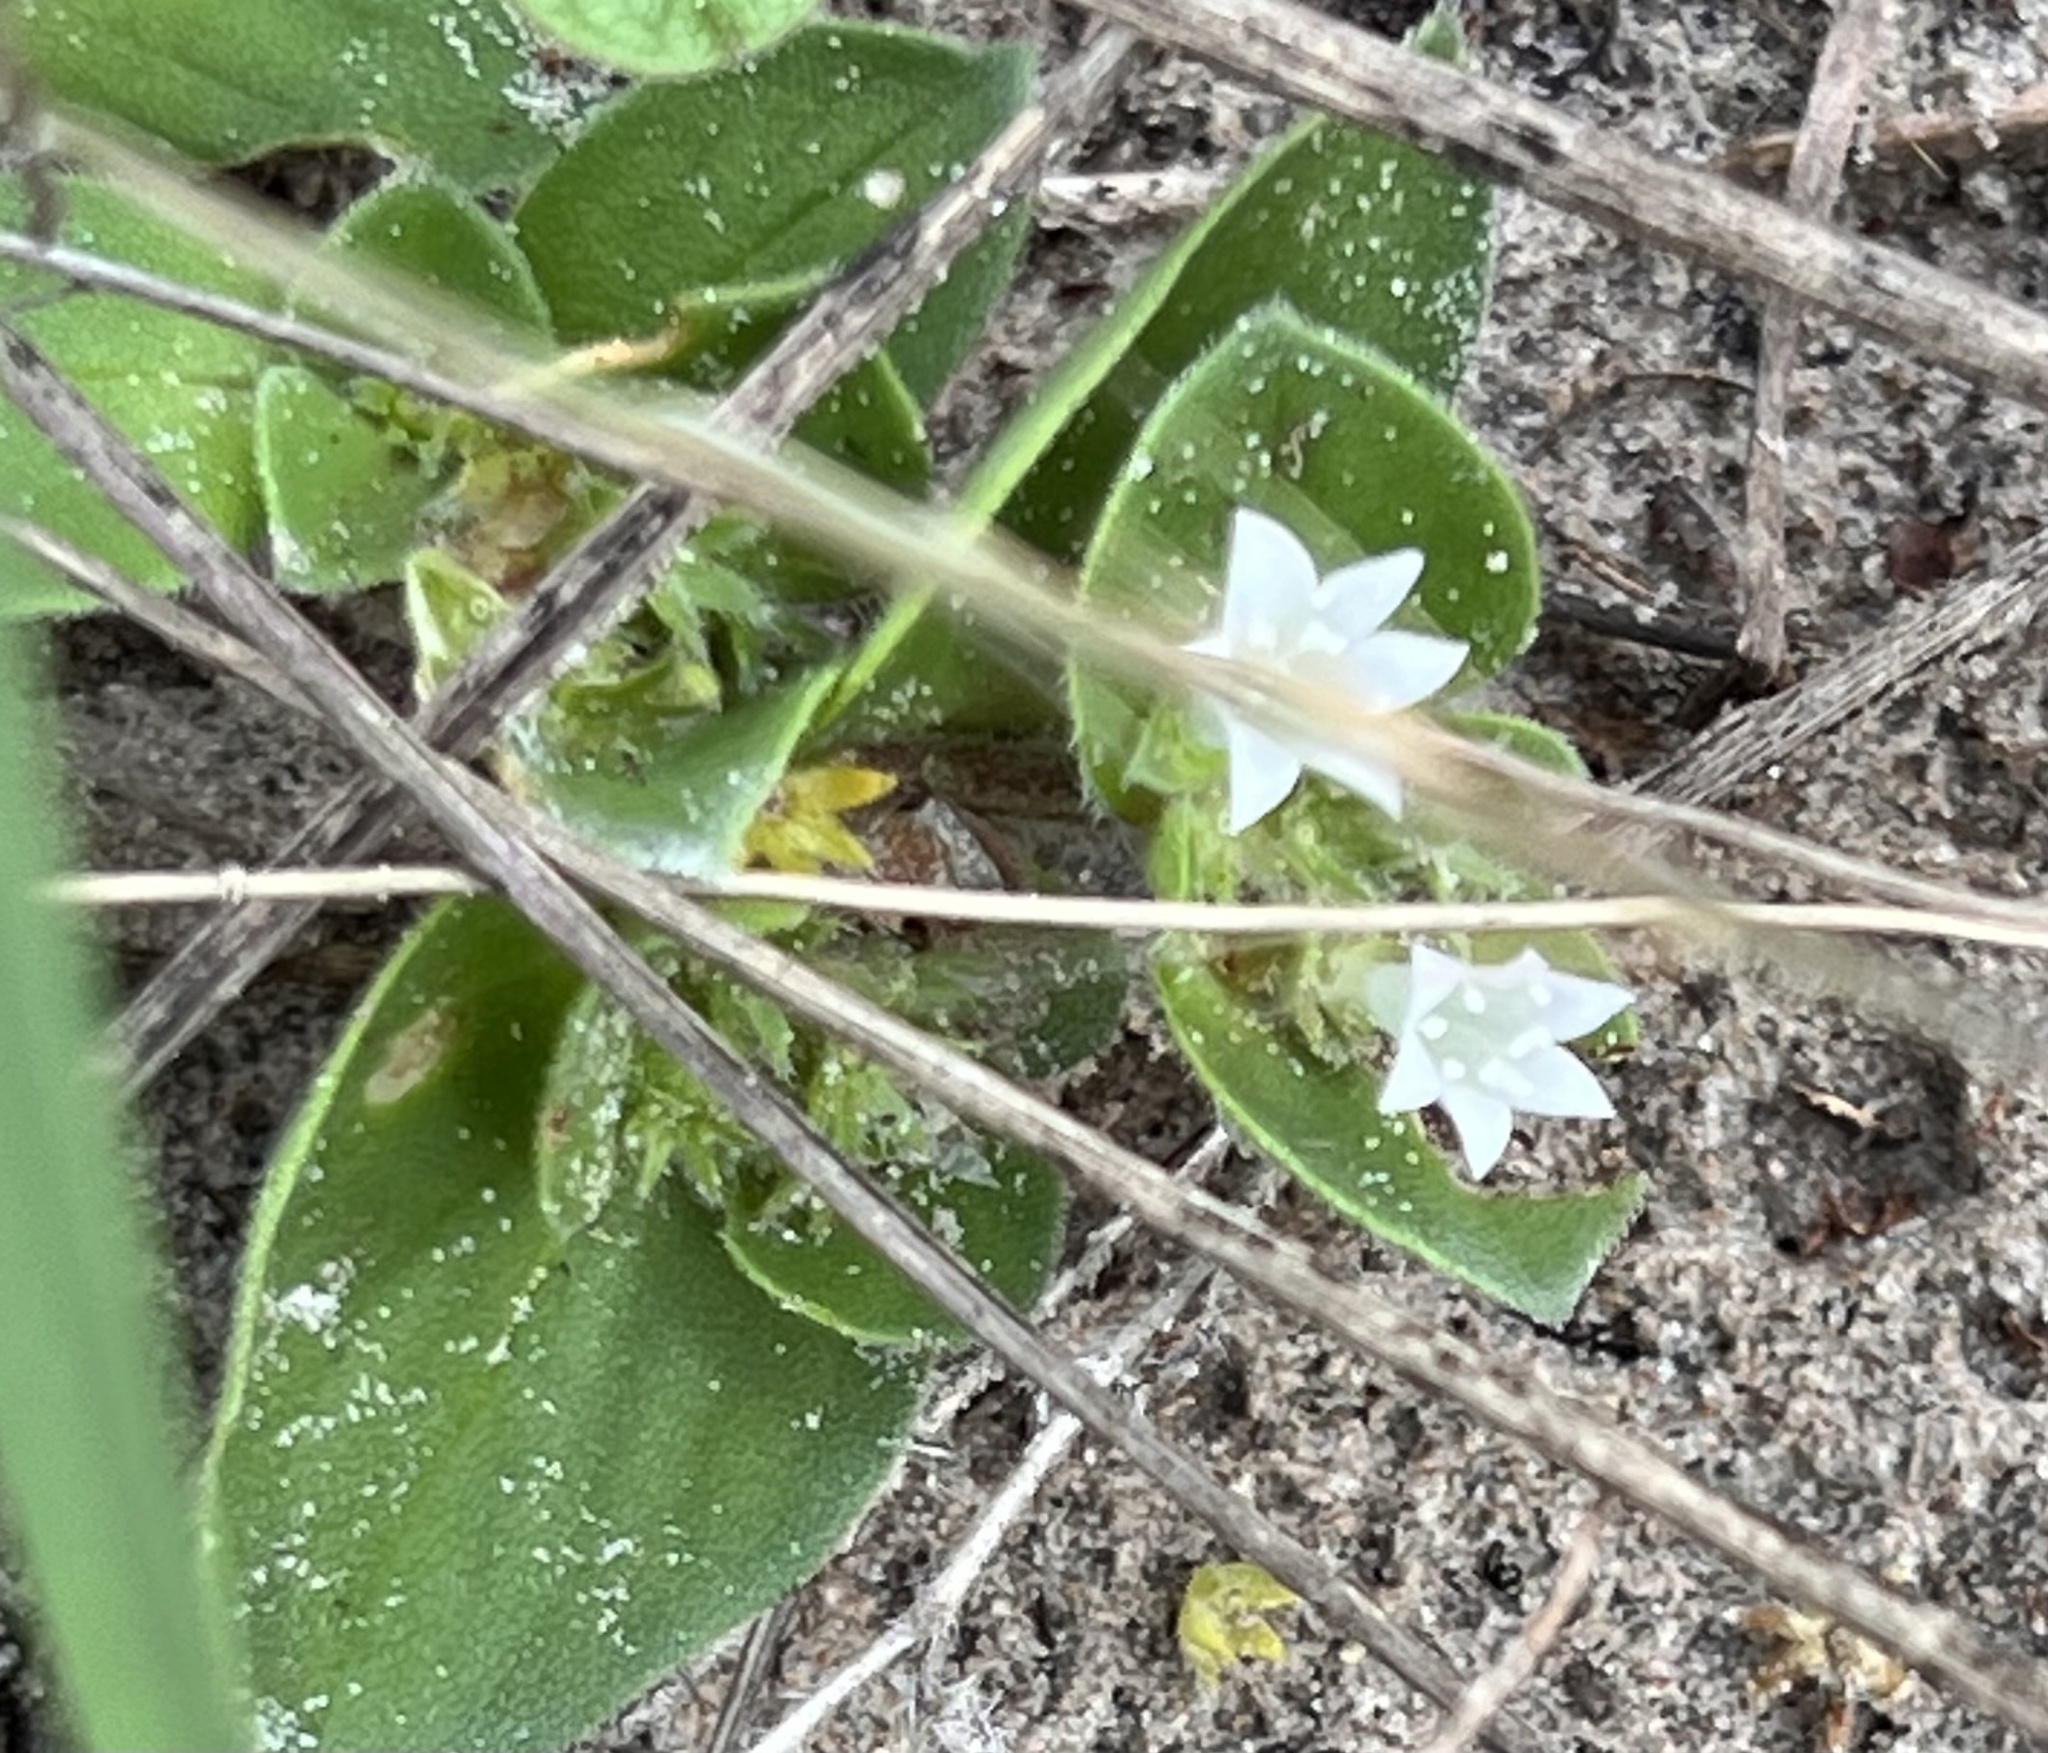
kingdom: Plantae
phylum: Tracheophyta
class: Magnoliopsida
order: Gentianales
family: Rubiaceae
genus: Richardia
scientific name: Richardia brasiliensis
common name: Tropical mexican clover
